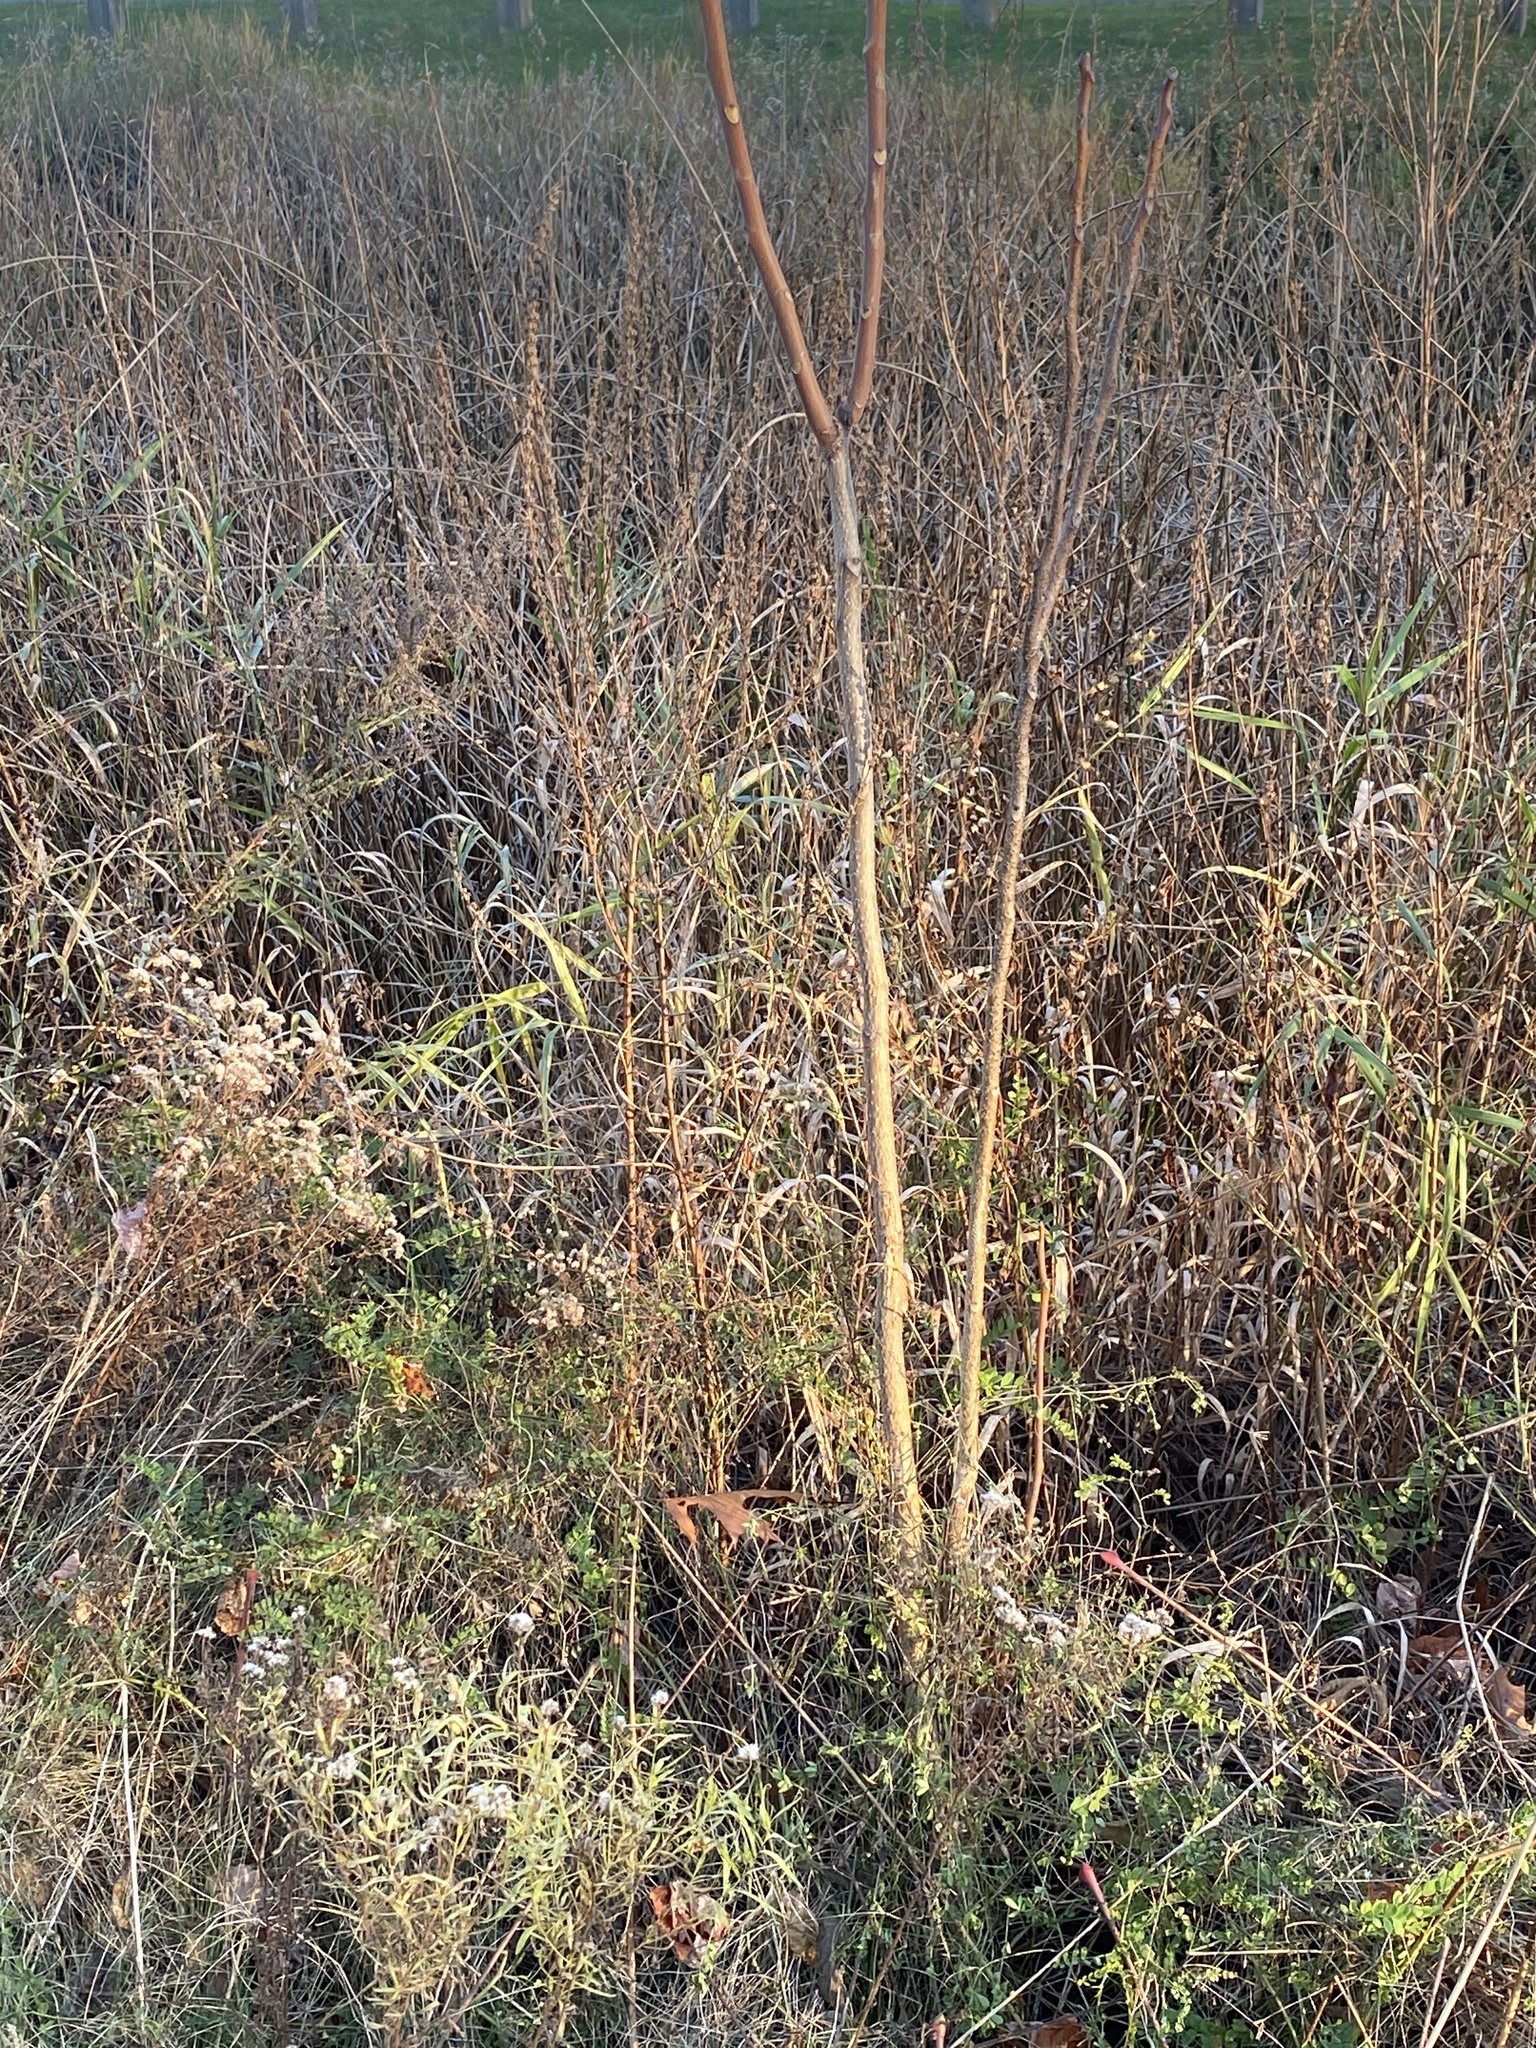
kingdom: Plantae
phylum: Tracheophyta
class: Magnoliopsida
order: Sapindales
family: Simaroubaceae
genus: Ailanthus
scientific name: Ailanthus altissima
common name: Tree-of-heaven
